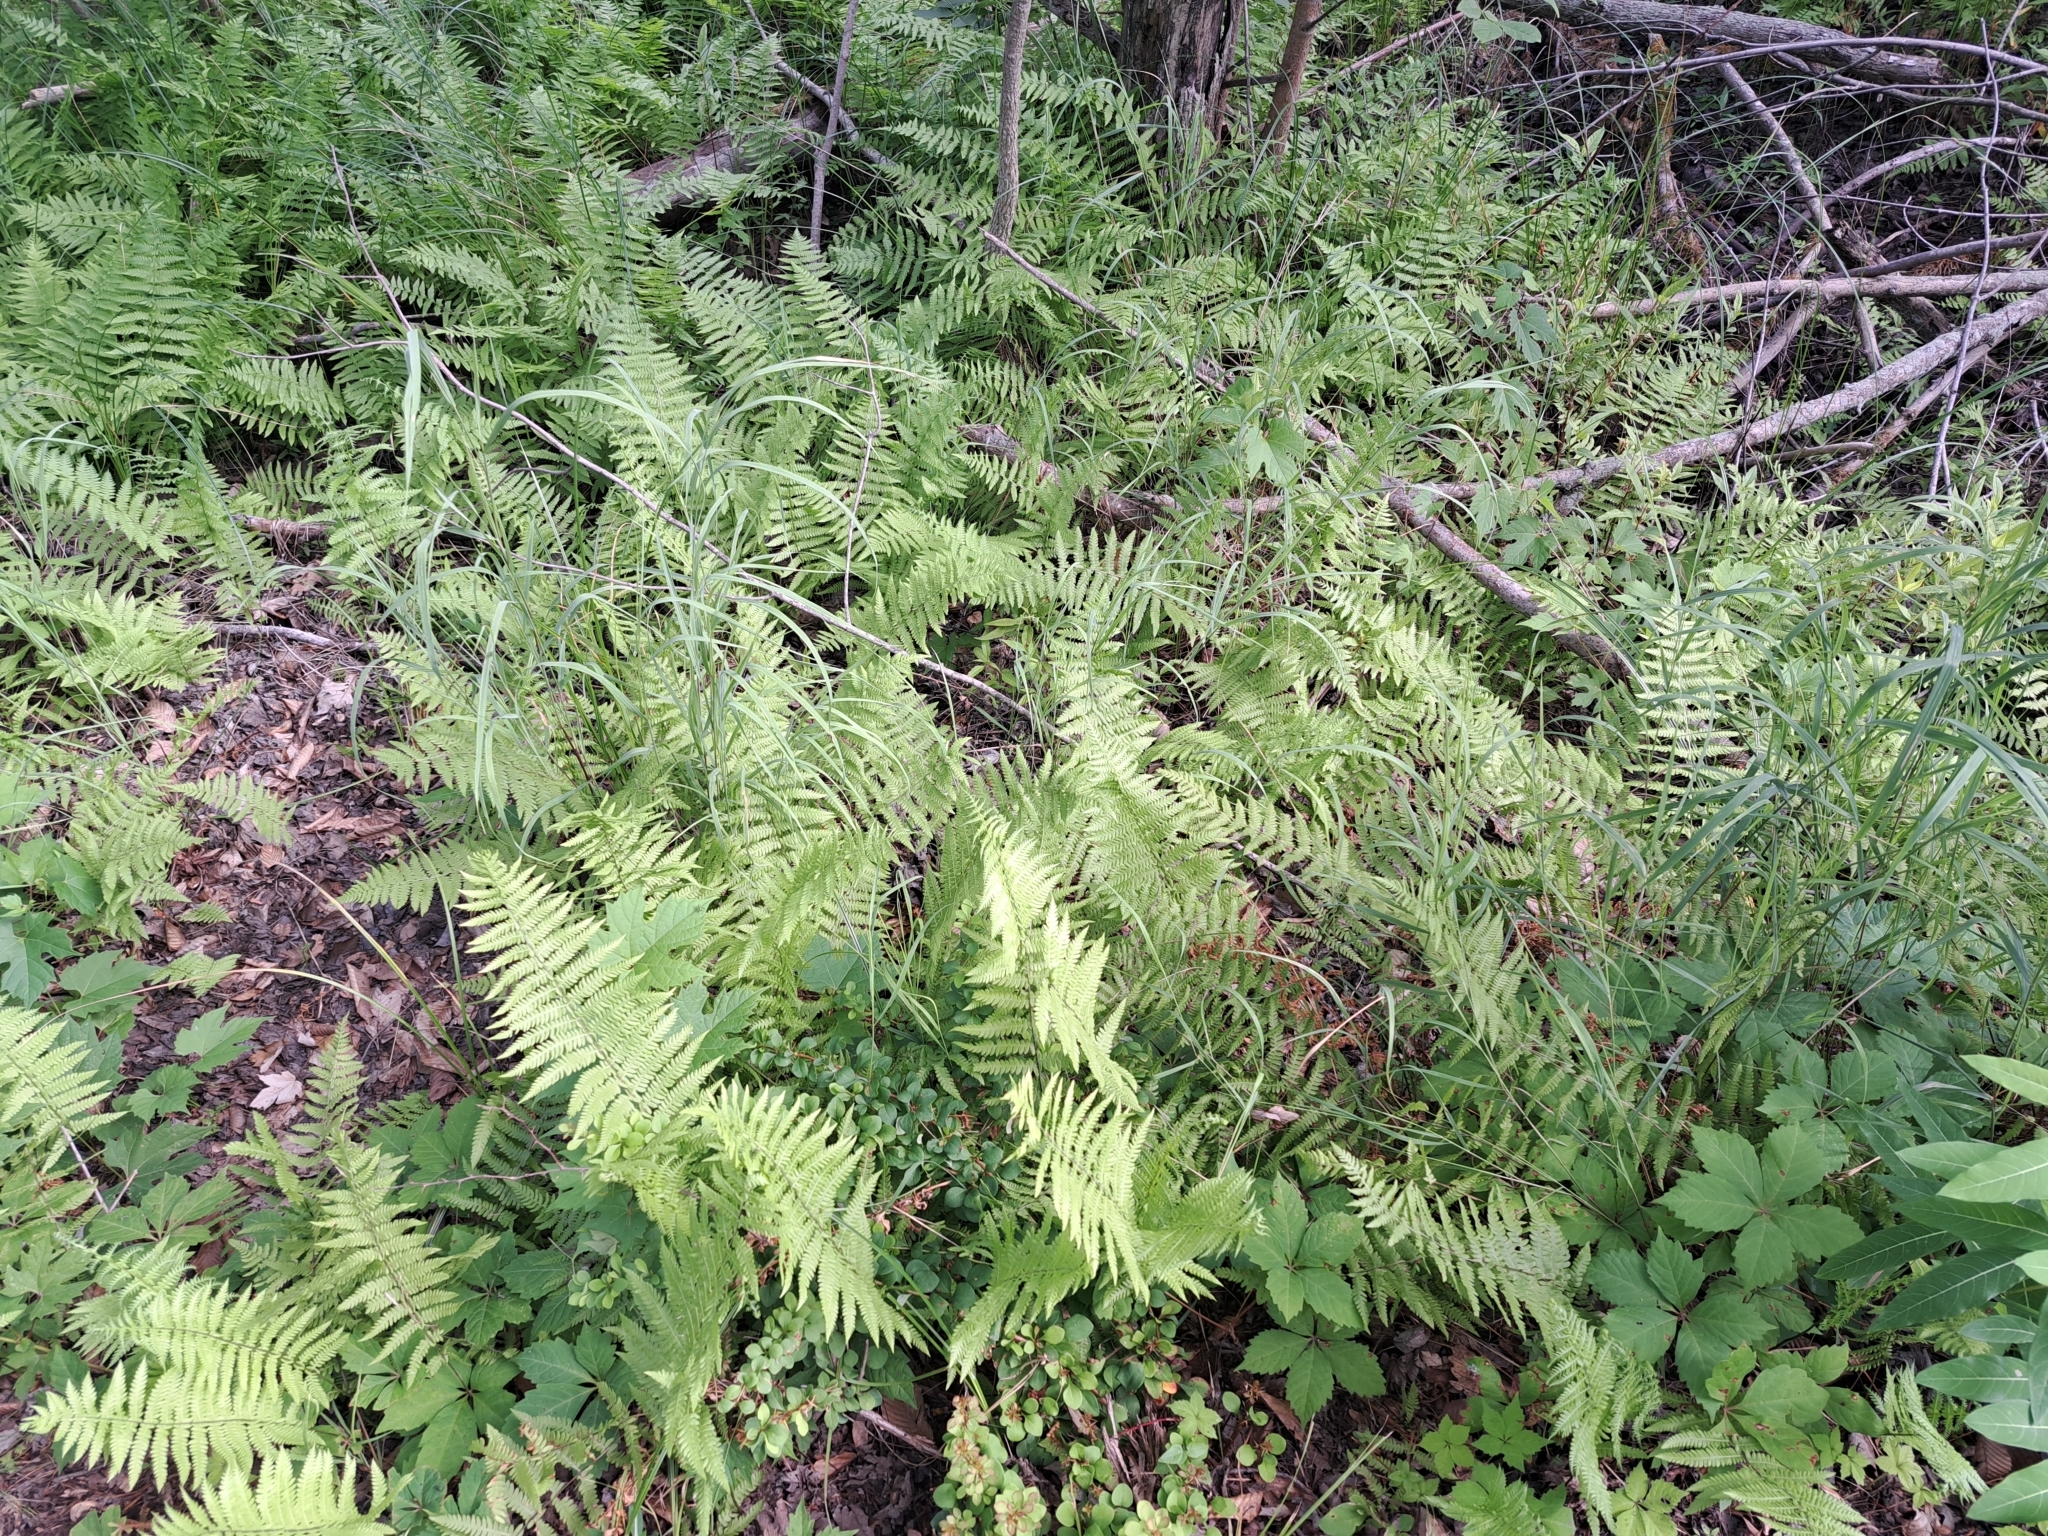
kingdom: Plantae
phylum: Tracheophyta
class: Polypodiopsida
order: Polypodiales
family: Thelypteridaceae
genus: Thelypteris
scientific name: Thelypteris palustris
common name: Marsh fern
